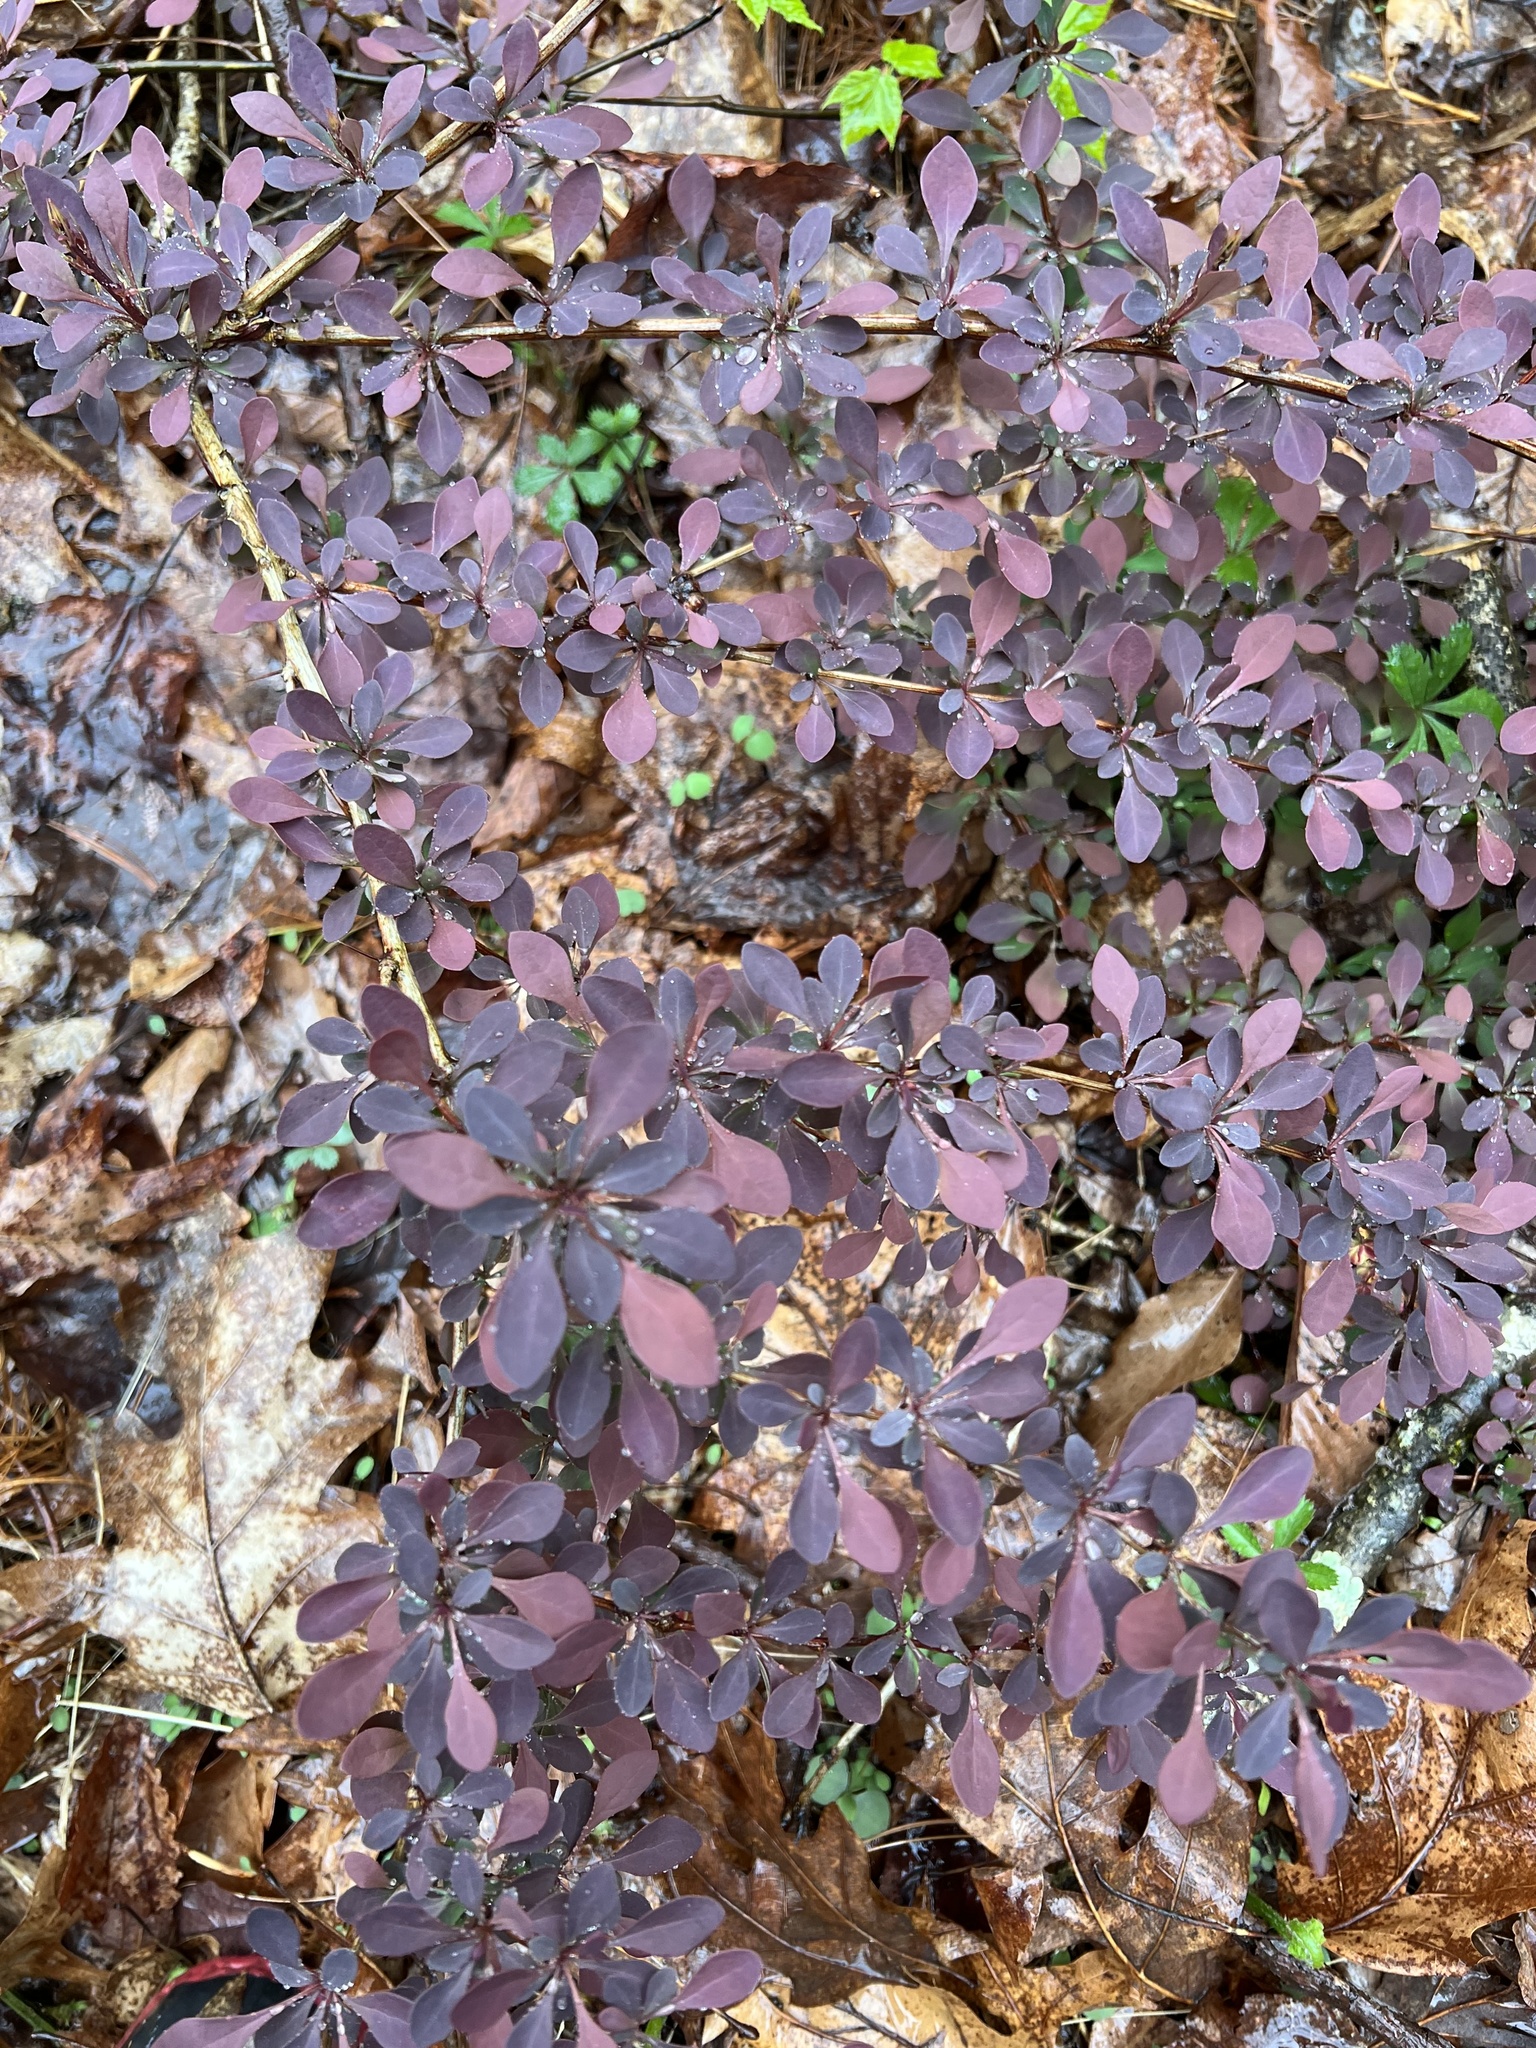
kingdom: Plantae
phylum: Tracheophyta
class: Magnoliopsida
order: Ranunculales
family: Berberidaceae
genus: Berberis
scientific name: Berberis thunbergii
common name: Japanese barberry
